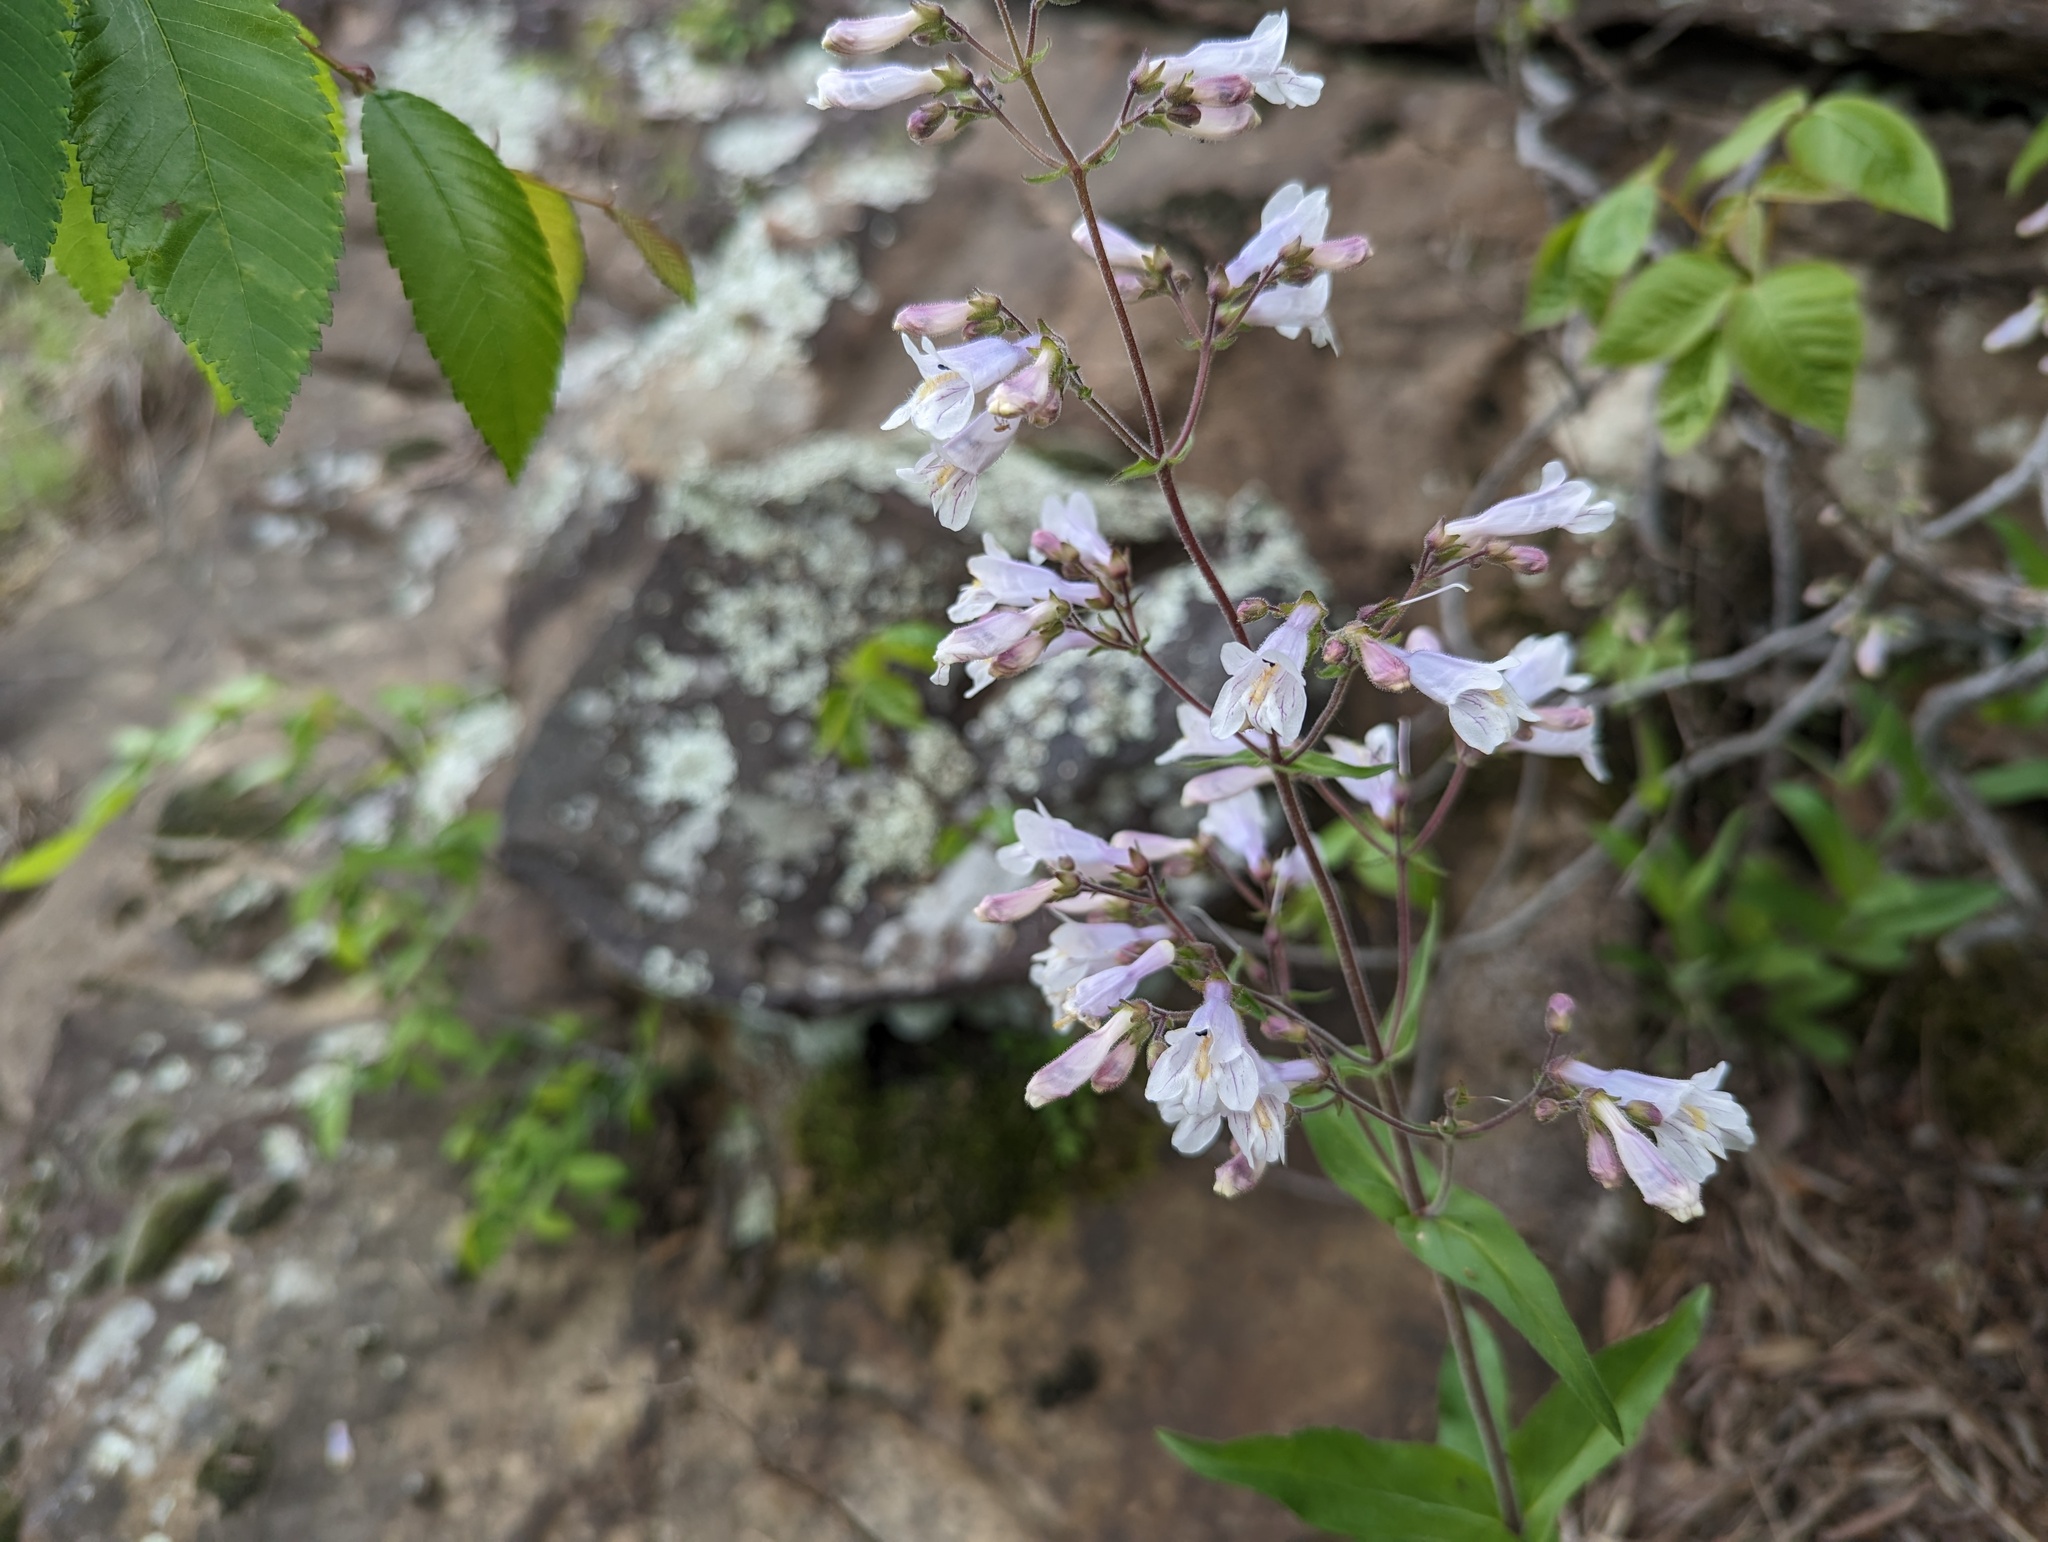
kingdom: Plantae
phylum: Tracheophyta
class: Magnoliopsida
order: Lamiales
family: Plantaginaceae
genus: Penstemon
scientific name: Penstemon pallidus
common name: Pale beardtongue
